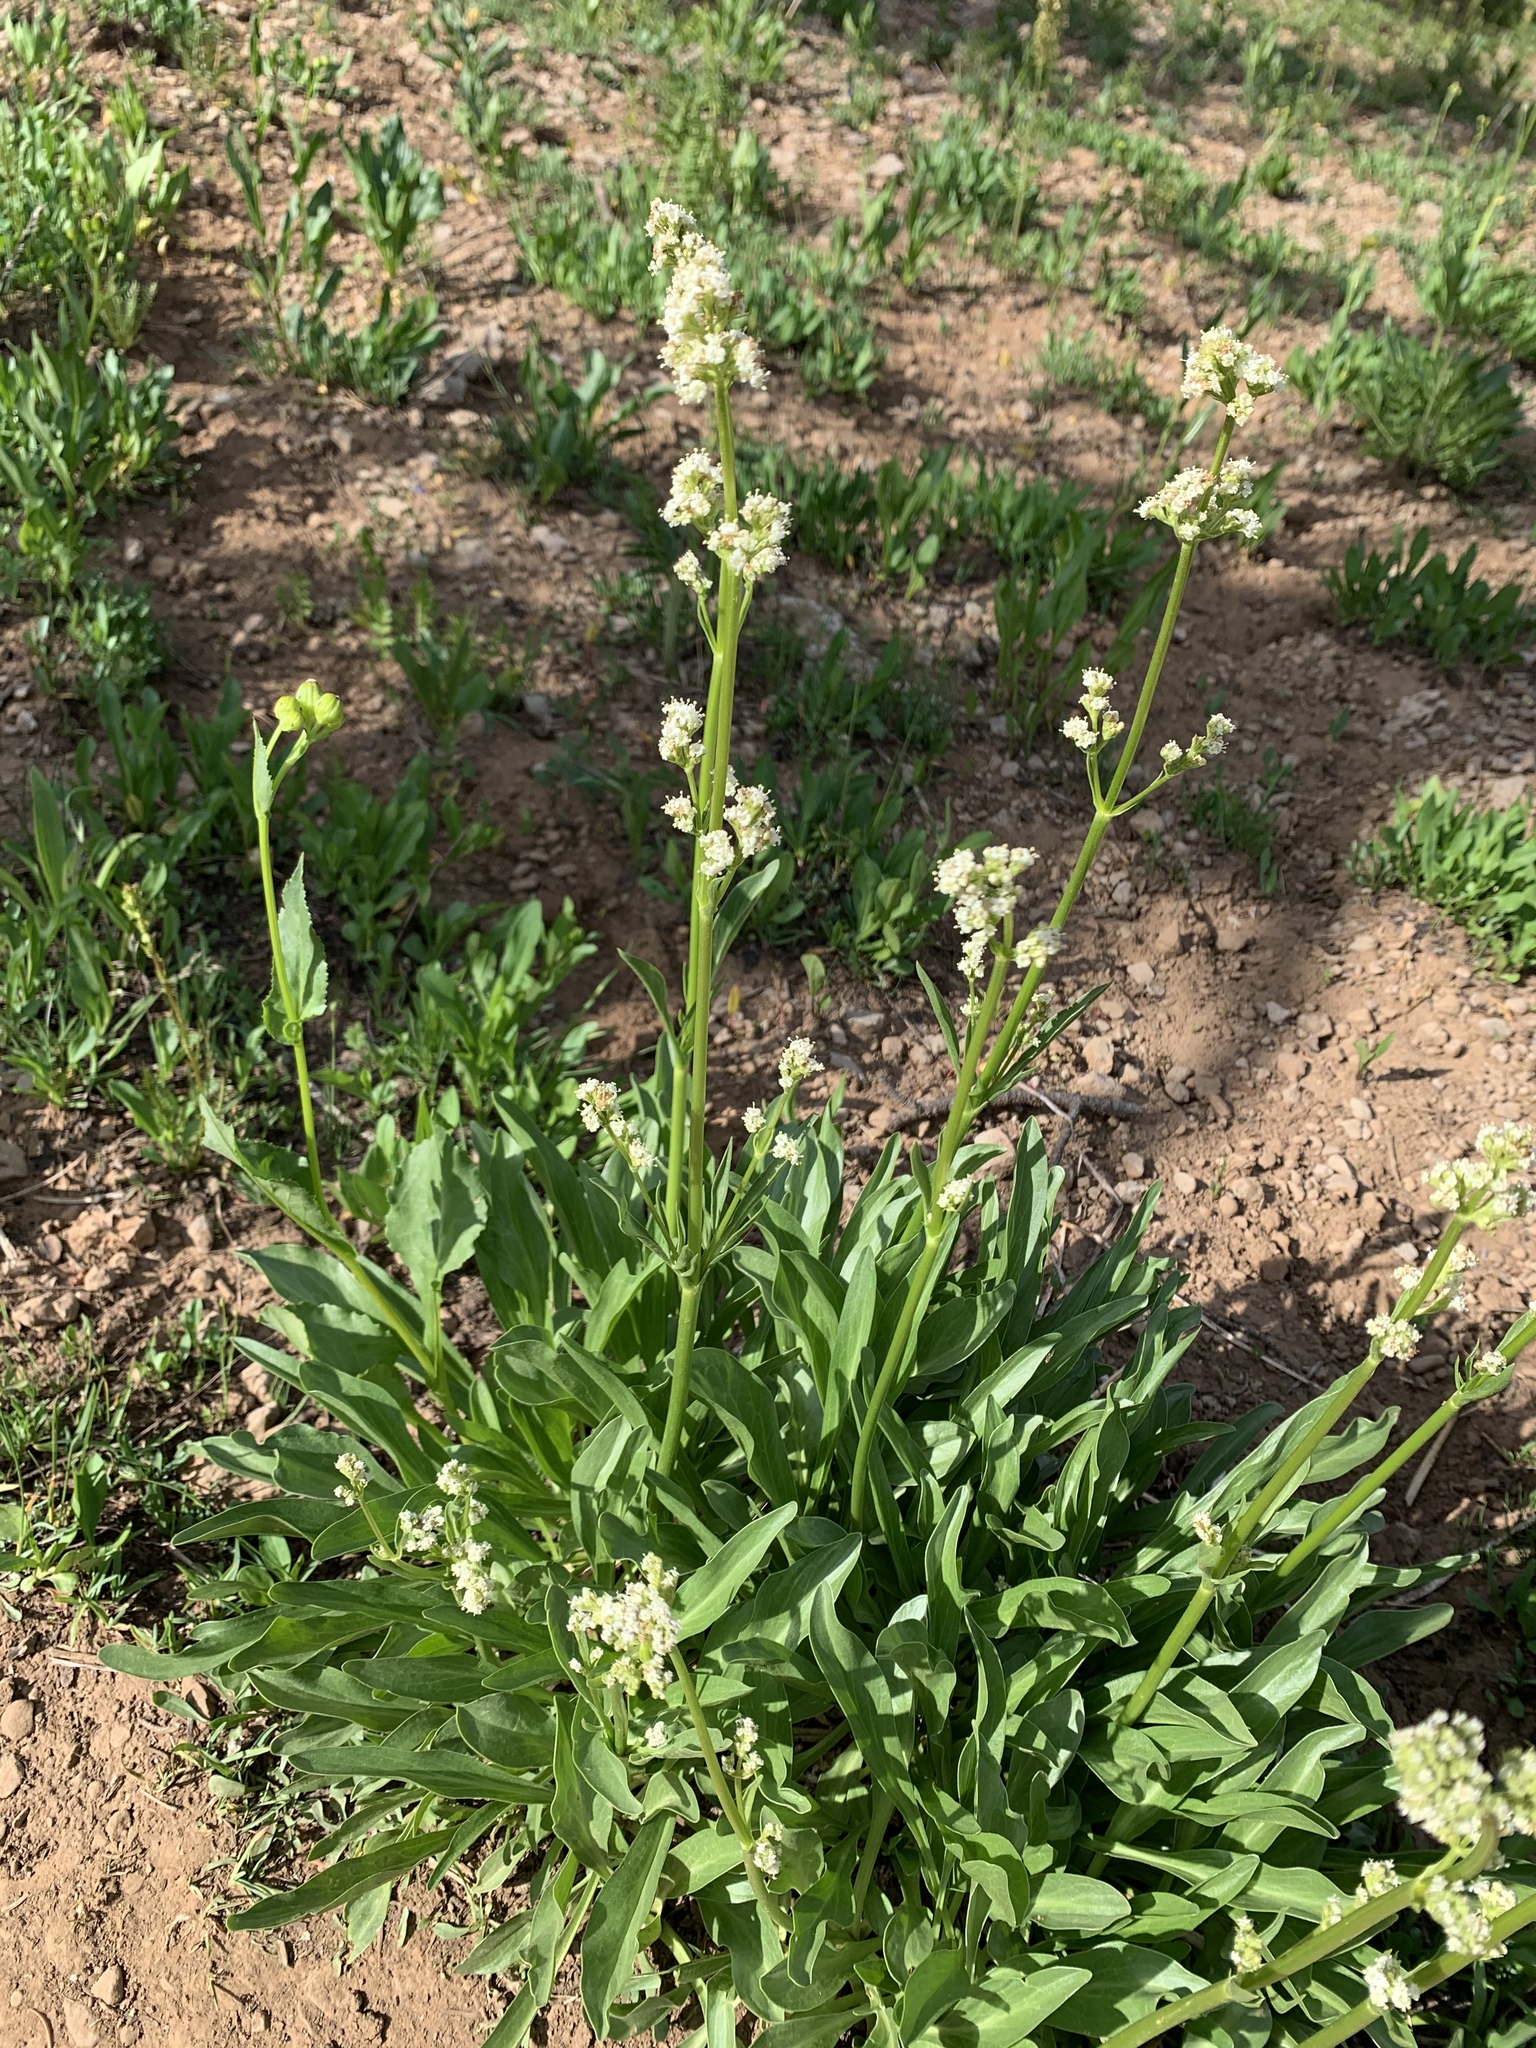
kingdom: Plantae
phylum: Tracheophyta
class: Magnoliopsida
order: Dipsacales
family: Caprifoliaceae
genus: Valeriana
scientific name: Valeriana edulis
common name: Taproot valerian
